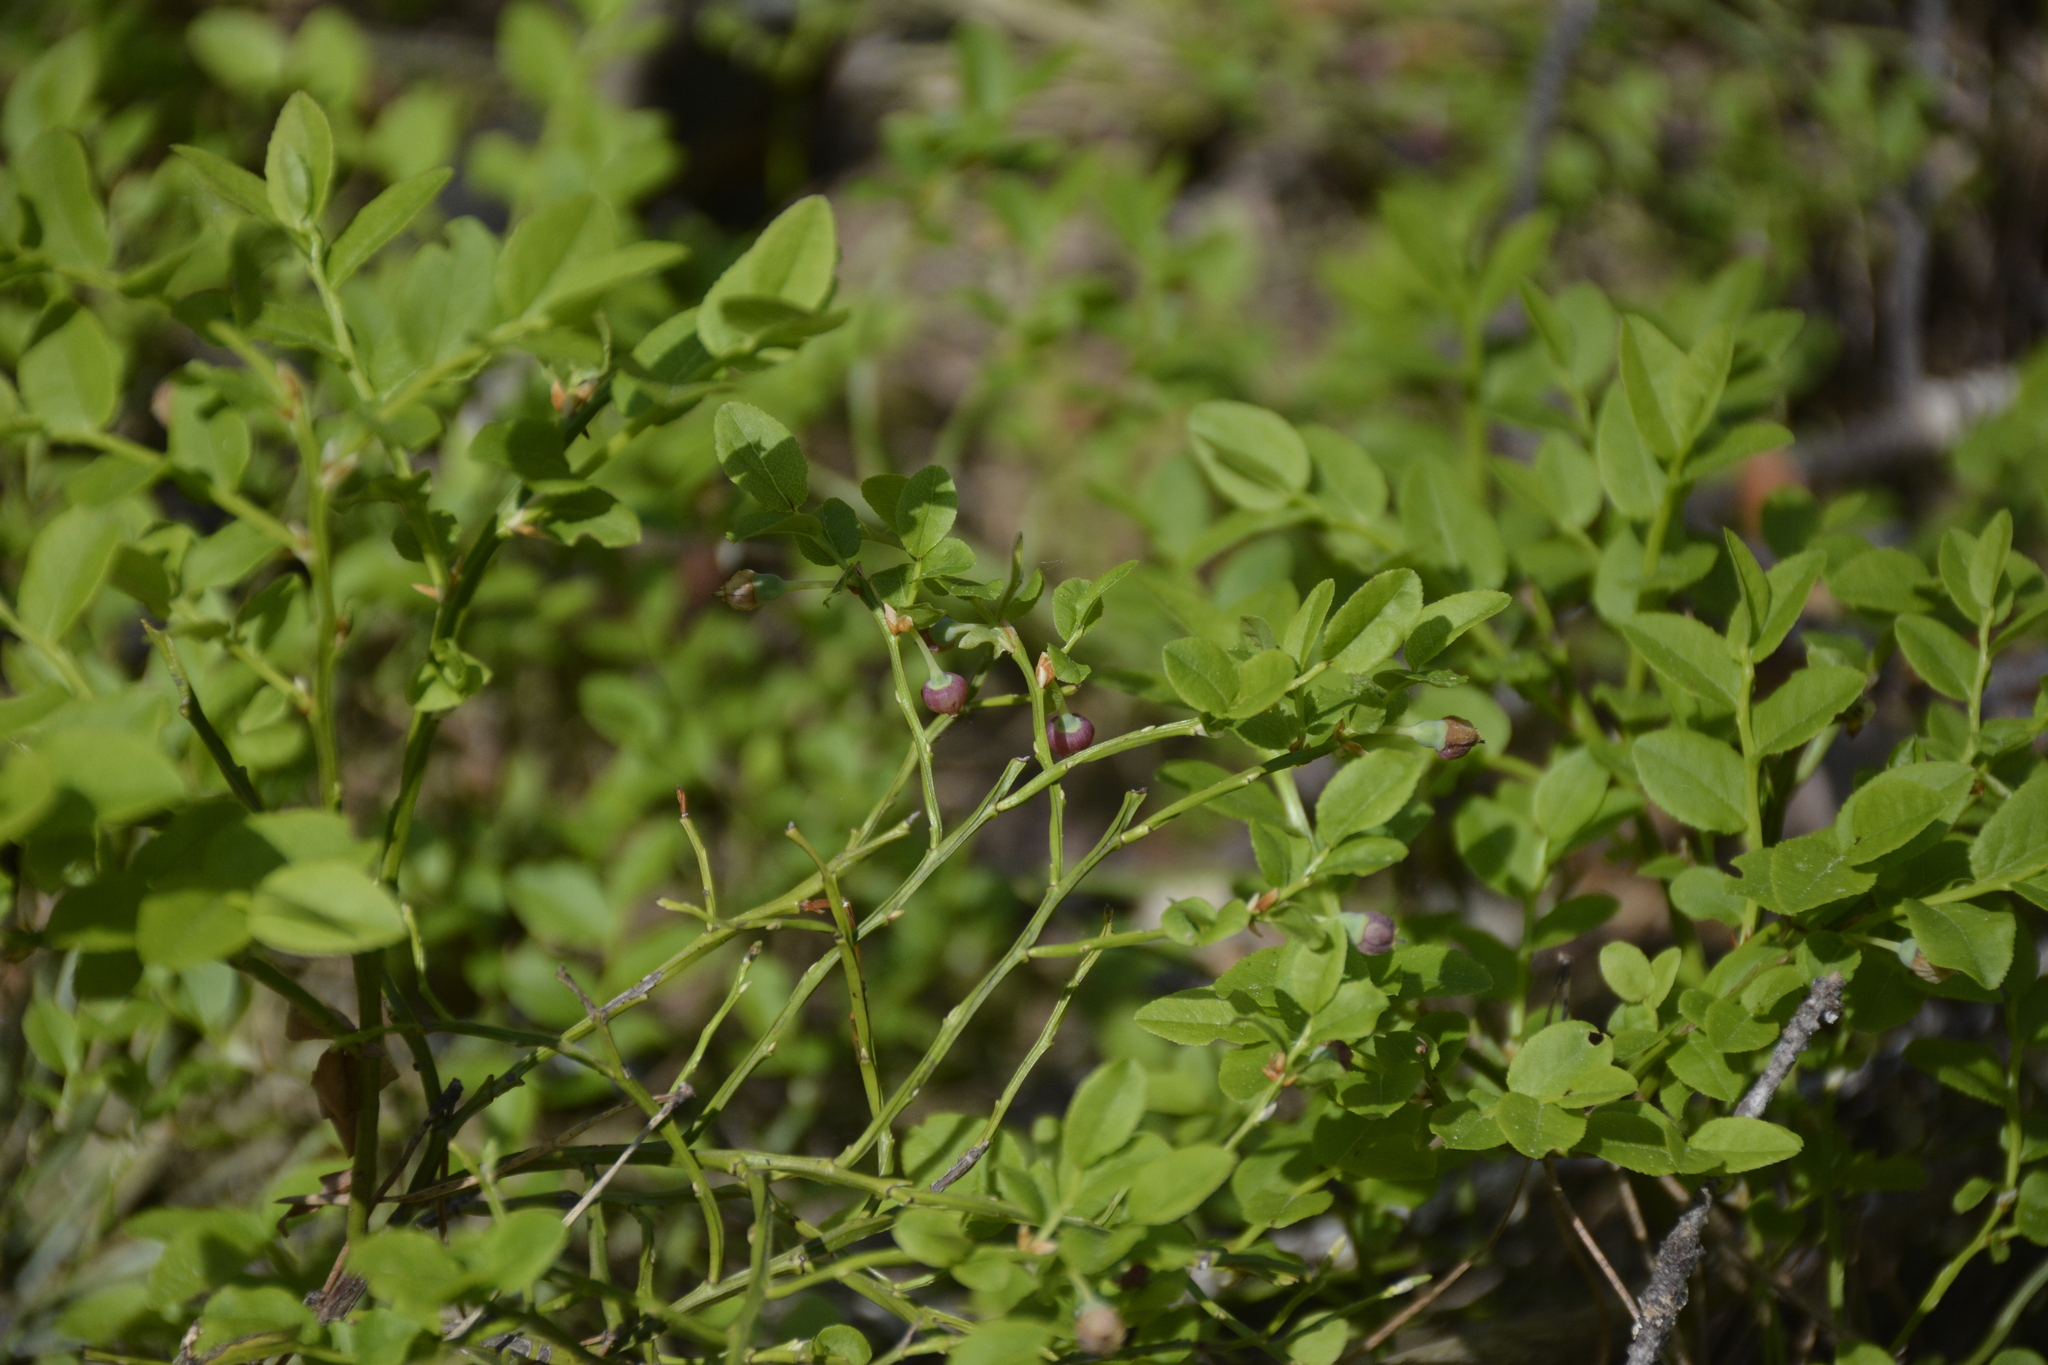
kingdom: Plantae
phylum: Tracheophyta
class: Magnoliopsida
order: Ericales
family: Ericaceae
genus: Vaccinium
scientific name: Vaccinium myrtillus
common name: Bilberry
